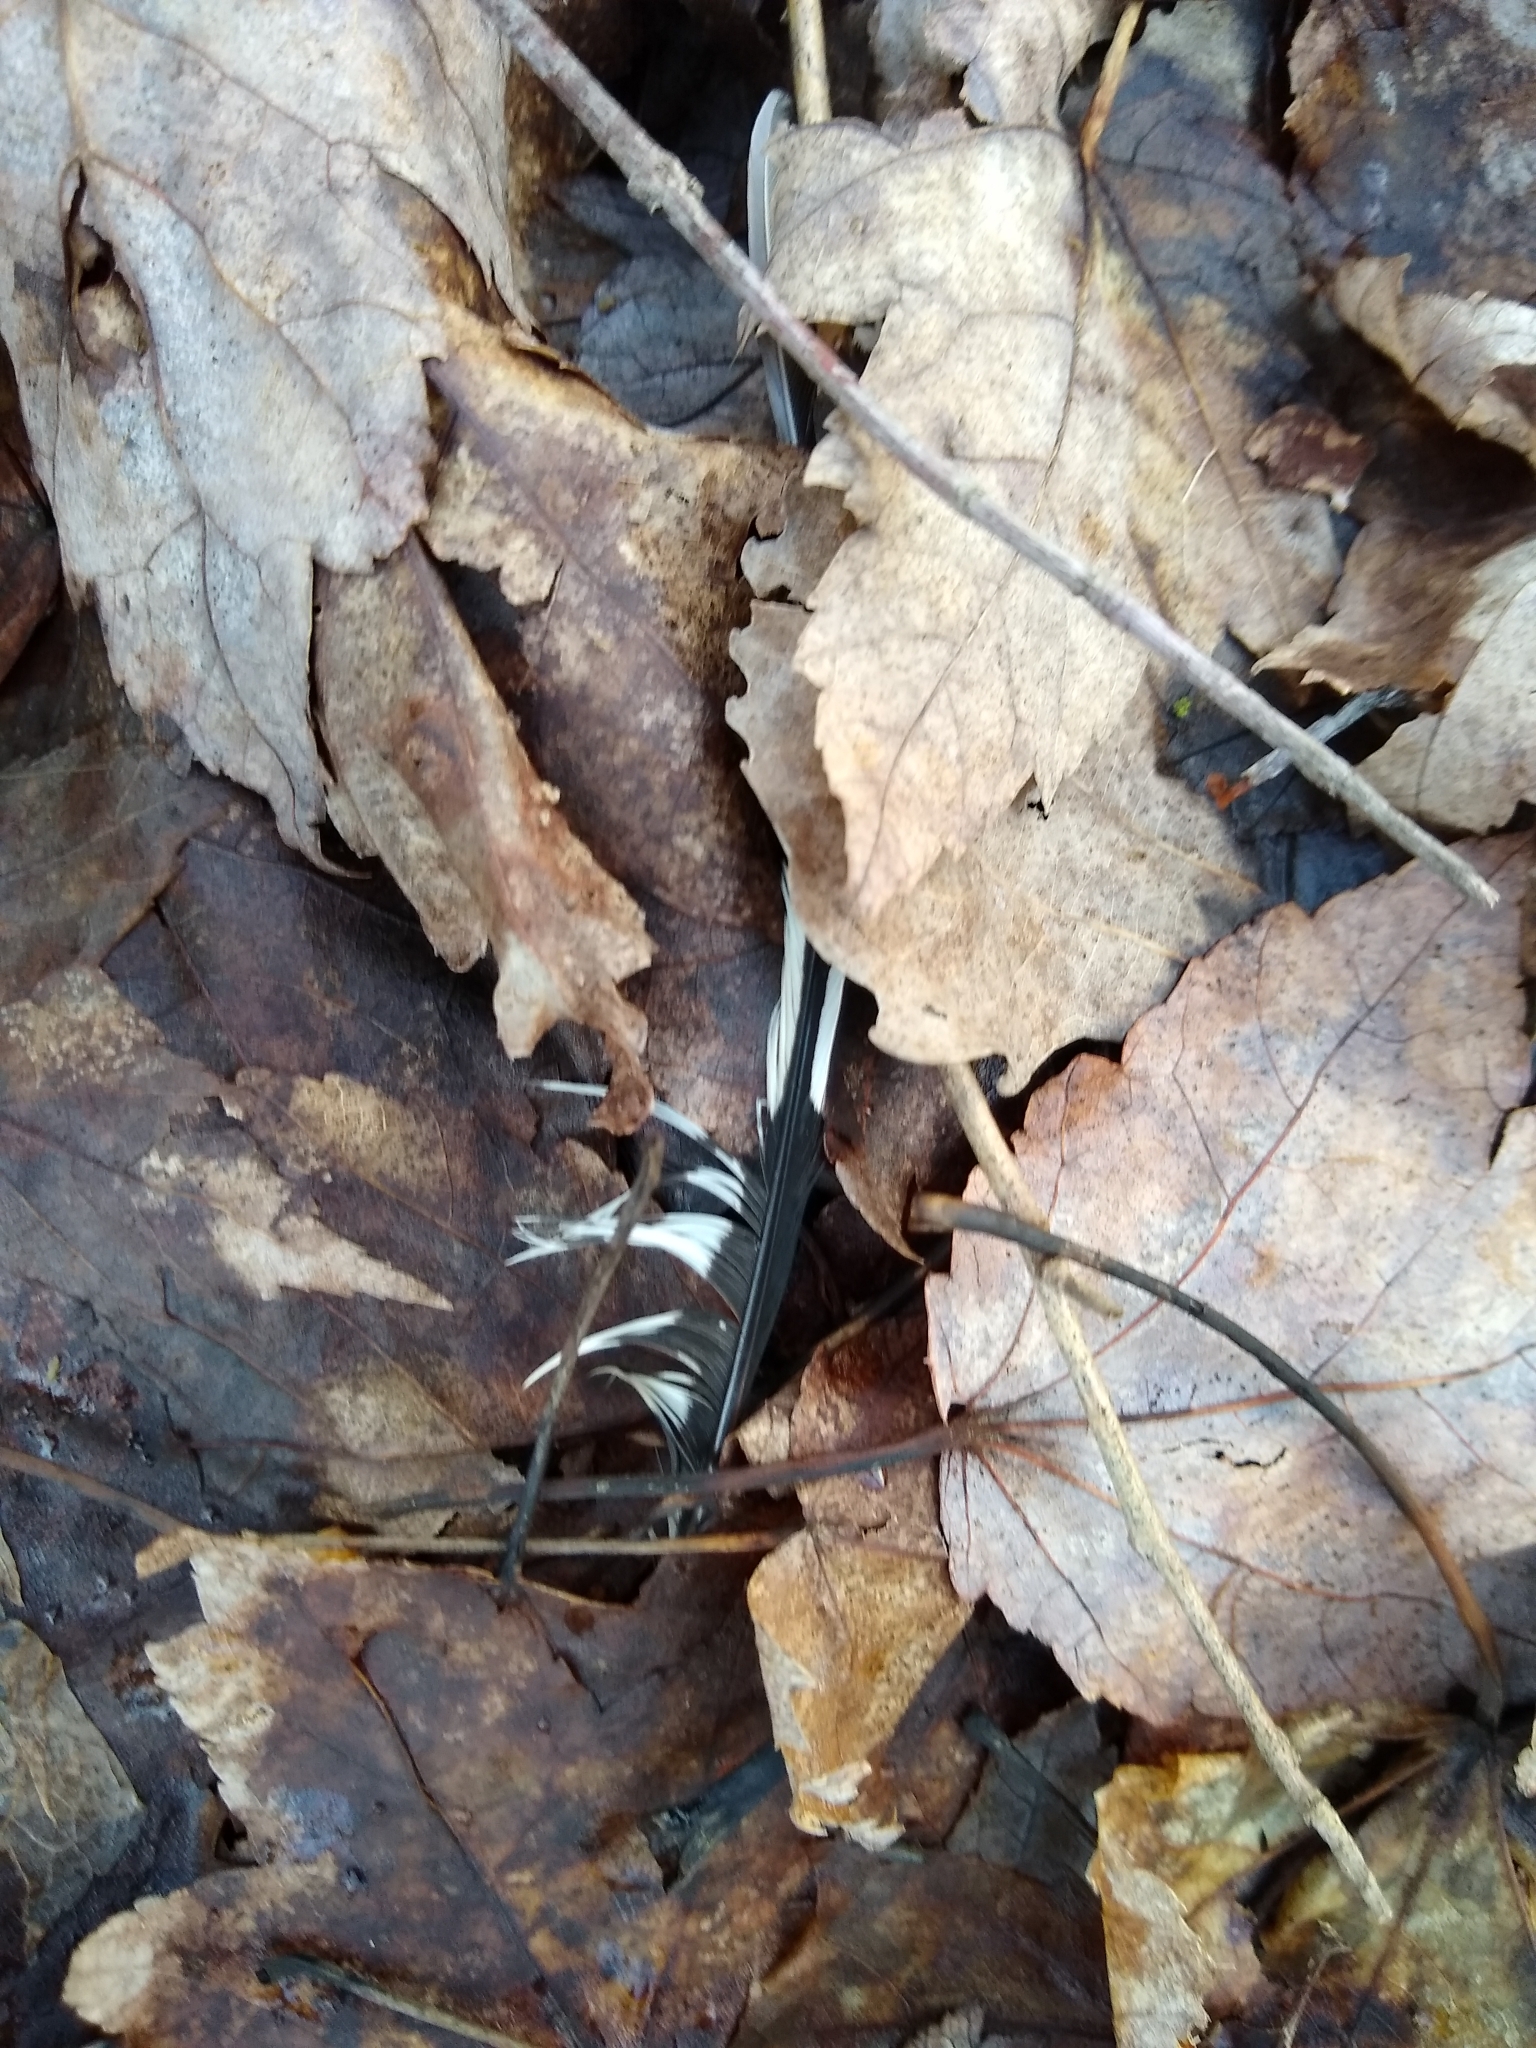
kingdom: Animalia
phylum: Chordata
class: Aves
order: Piciformes
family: Picidae
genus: Melanerpes
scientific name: Melanerpes carolinus
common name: Red-bellied woodpecker
